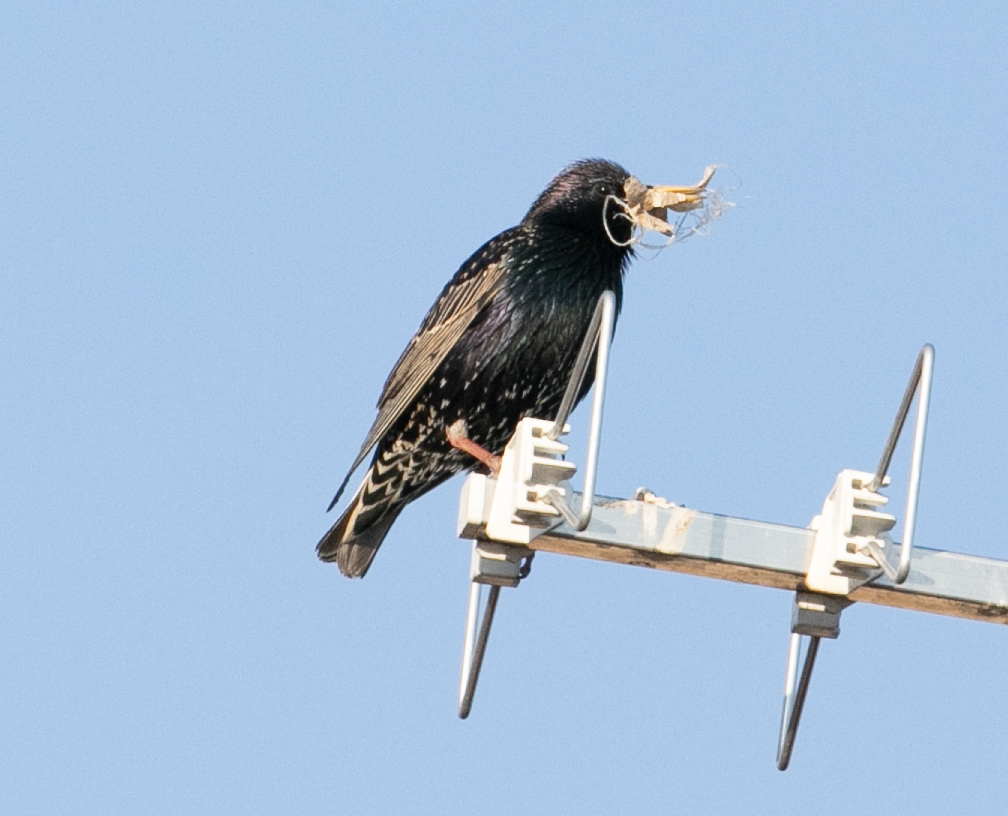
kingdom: Animalia
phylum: Chordata
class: Aves
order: Passeriformes
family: Sturnidae
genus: Sturnus
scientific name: Sturnus vulgaris
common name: Common starling
